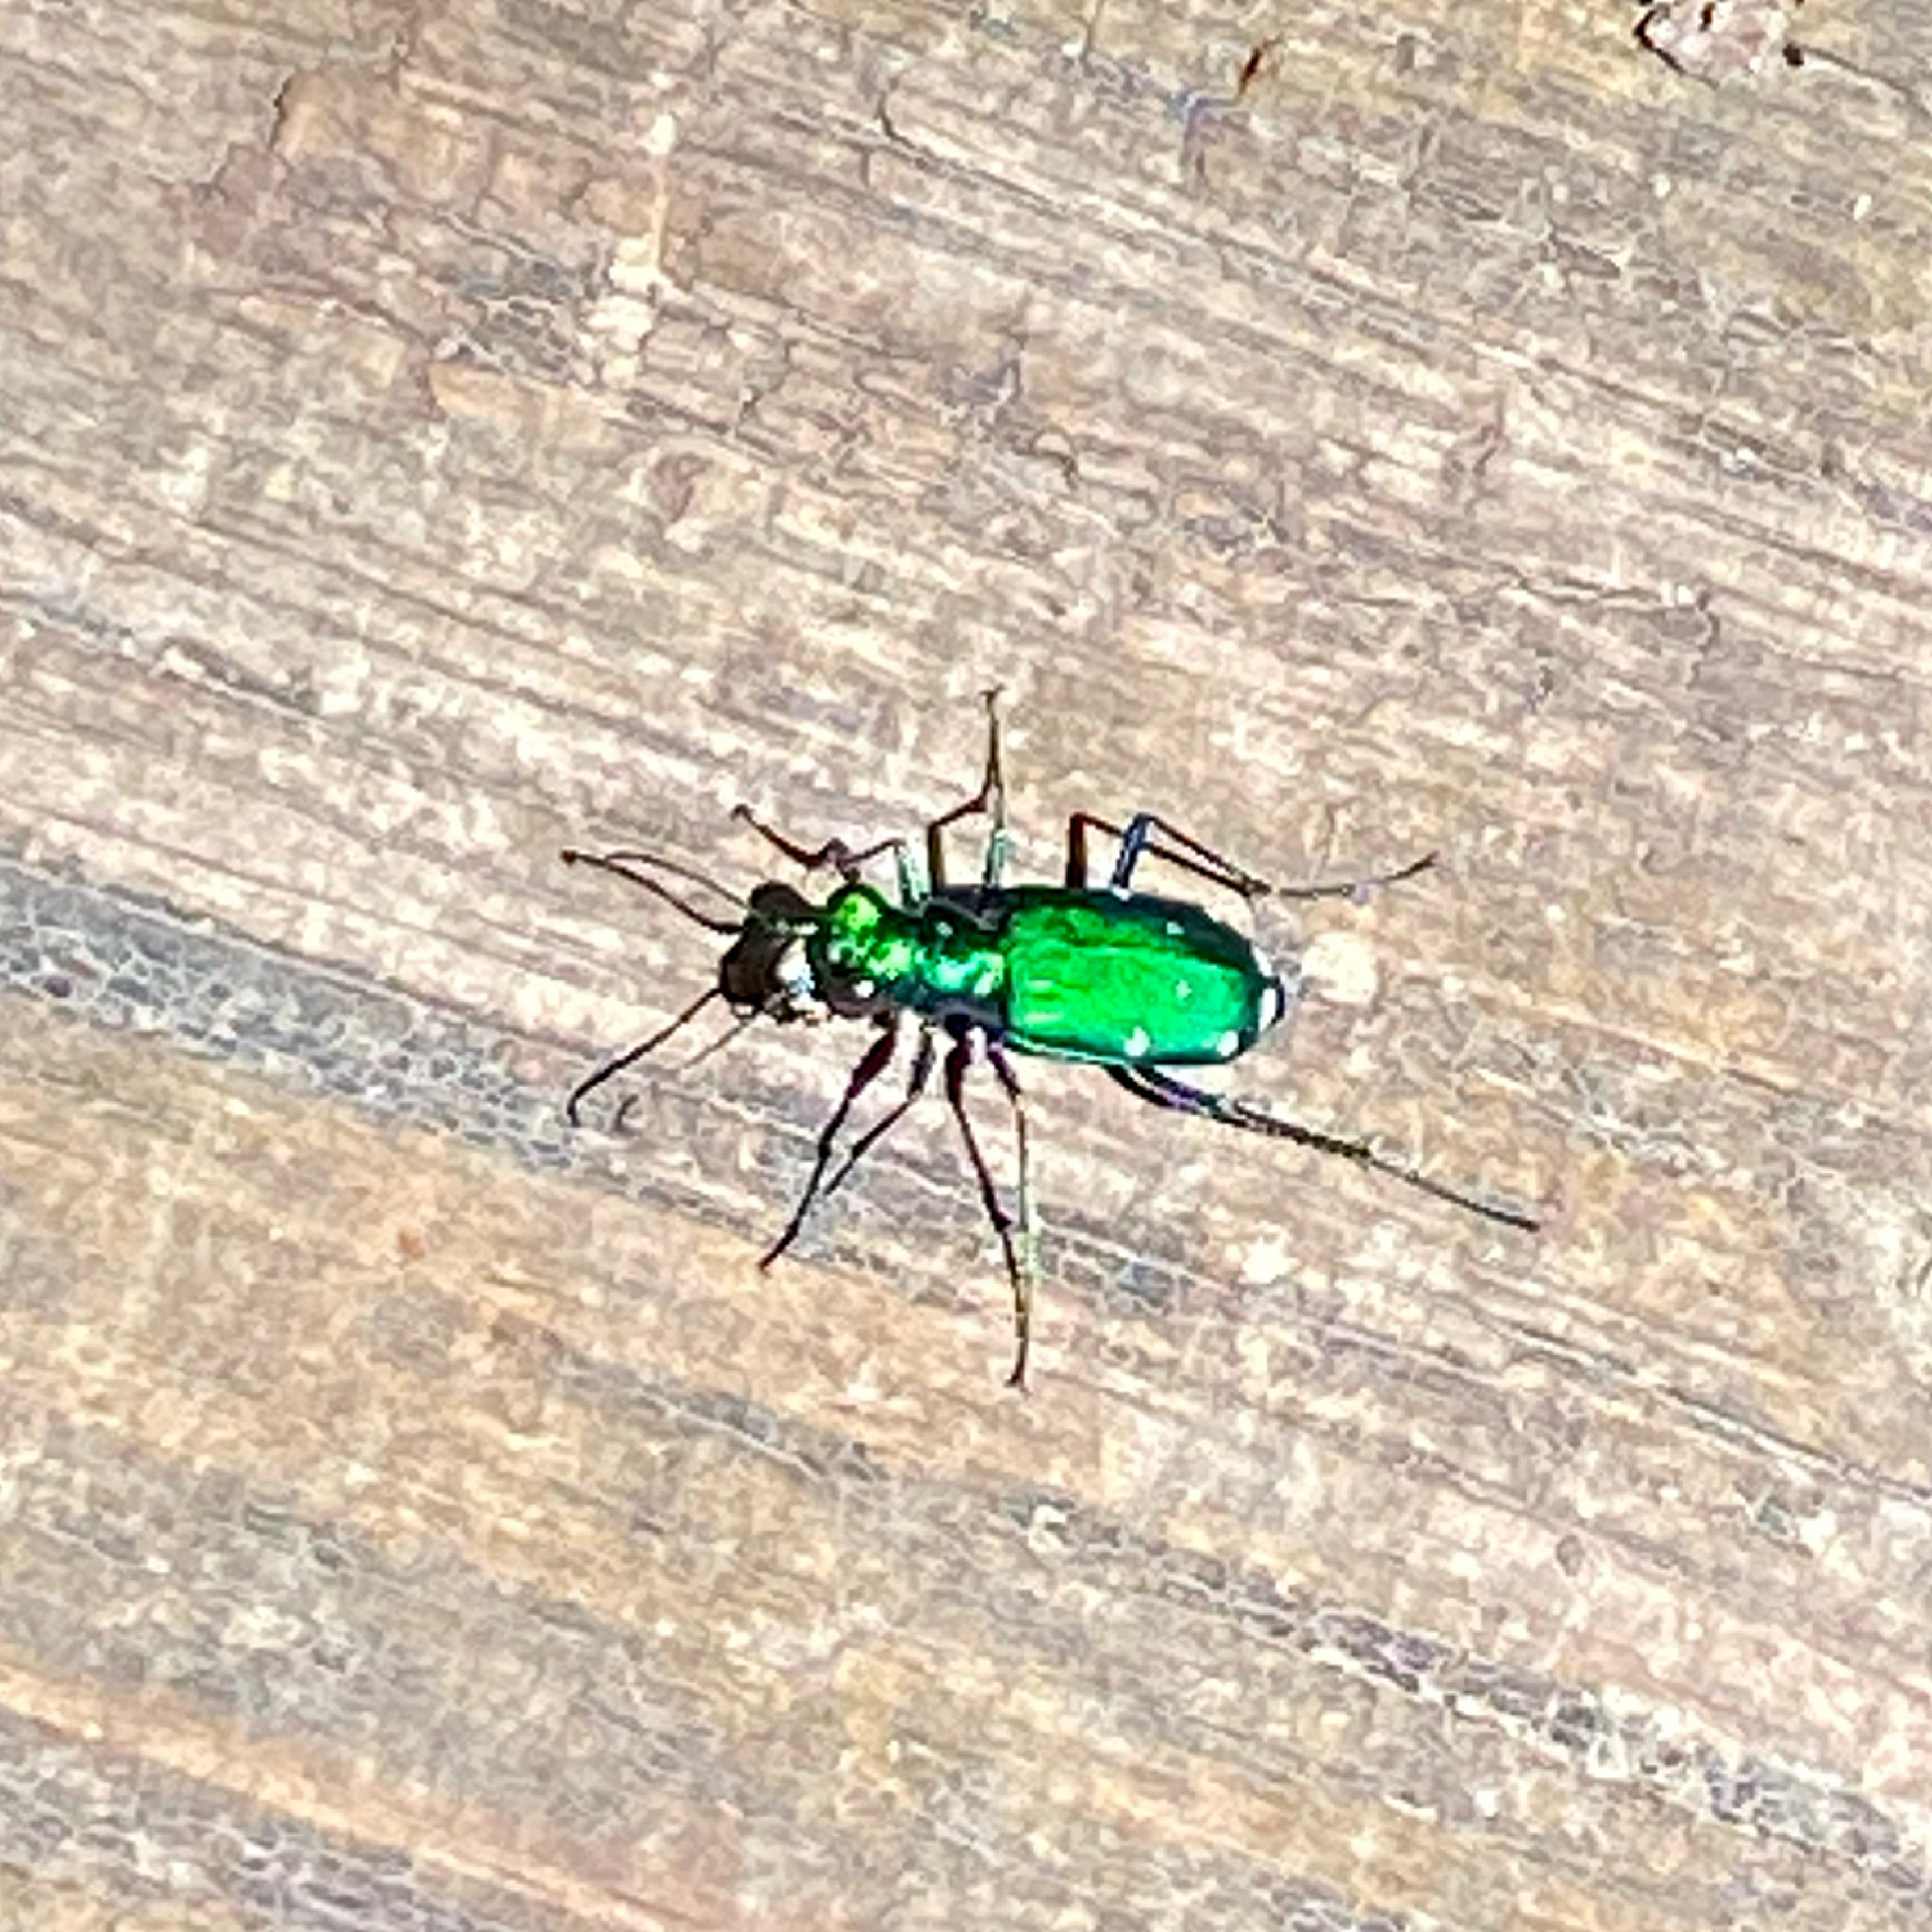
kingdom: Animalia
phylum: Arthropoda
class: Insecta
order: Coleoptera
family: Carabidae
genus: Cicindela
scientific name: Cicindela sexguttata
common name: Six-spotted tiger beetle
